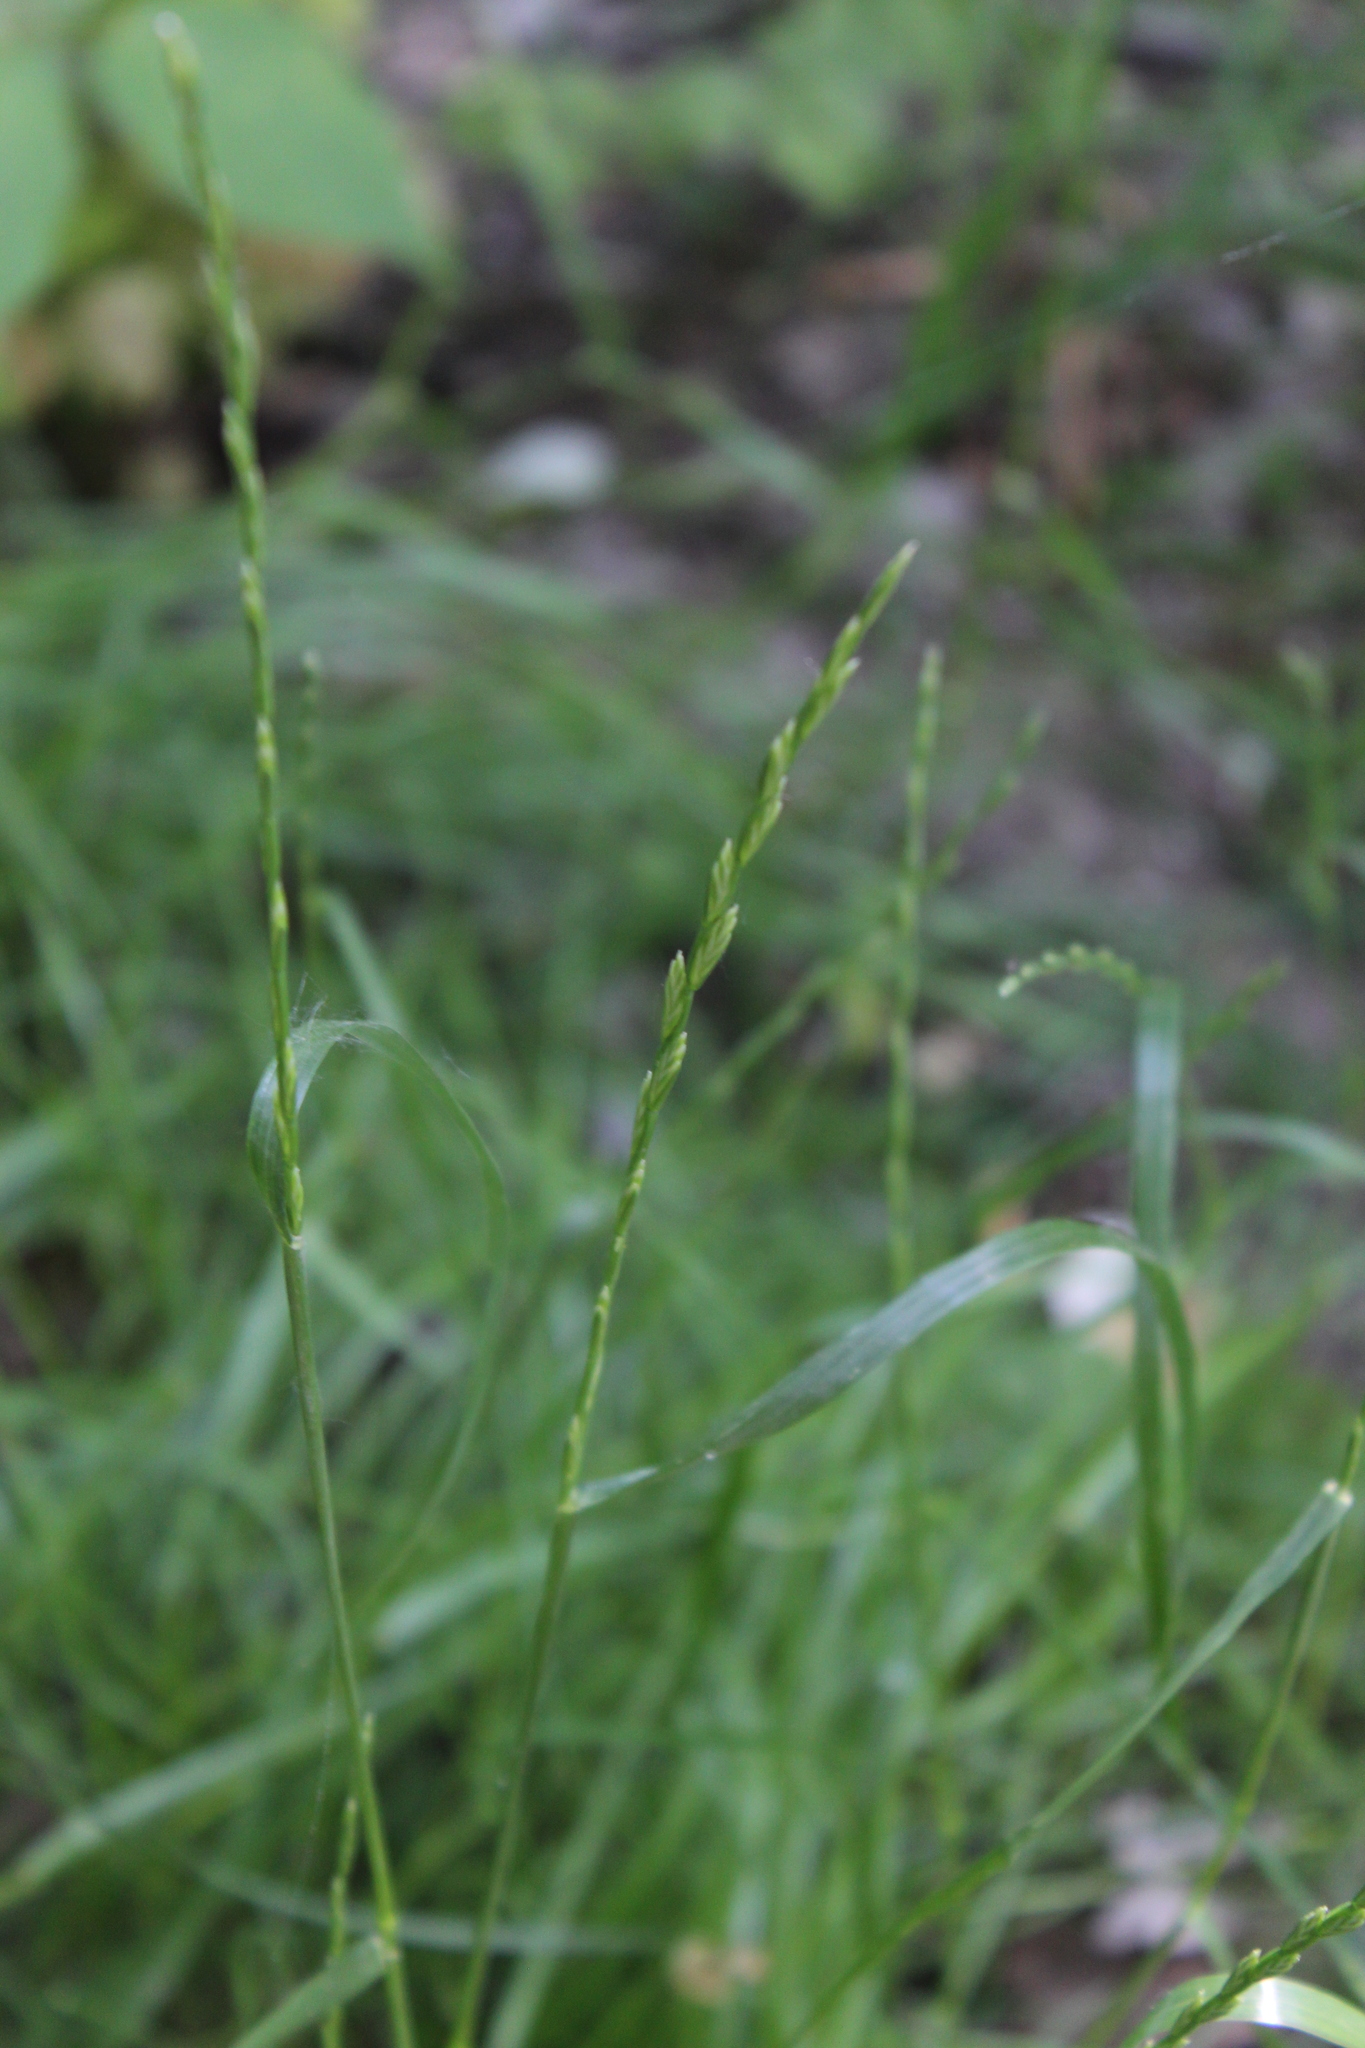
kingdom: Plantae
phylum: Tracheophyta
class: Liliopsida
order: Poales
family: Poaceae
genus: Lolium
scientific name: Lolium perenne
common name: Perennial ryegrass
